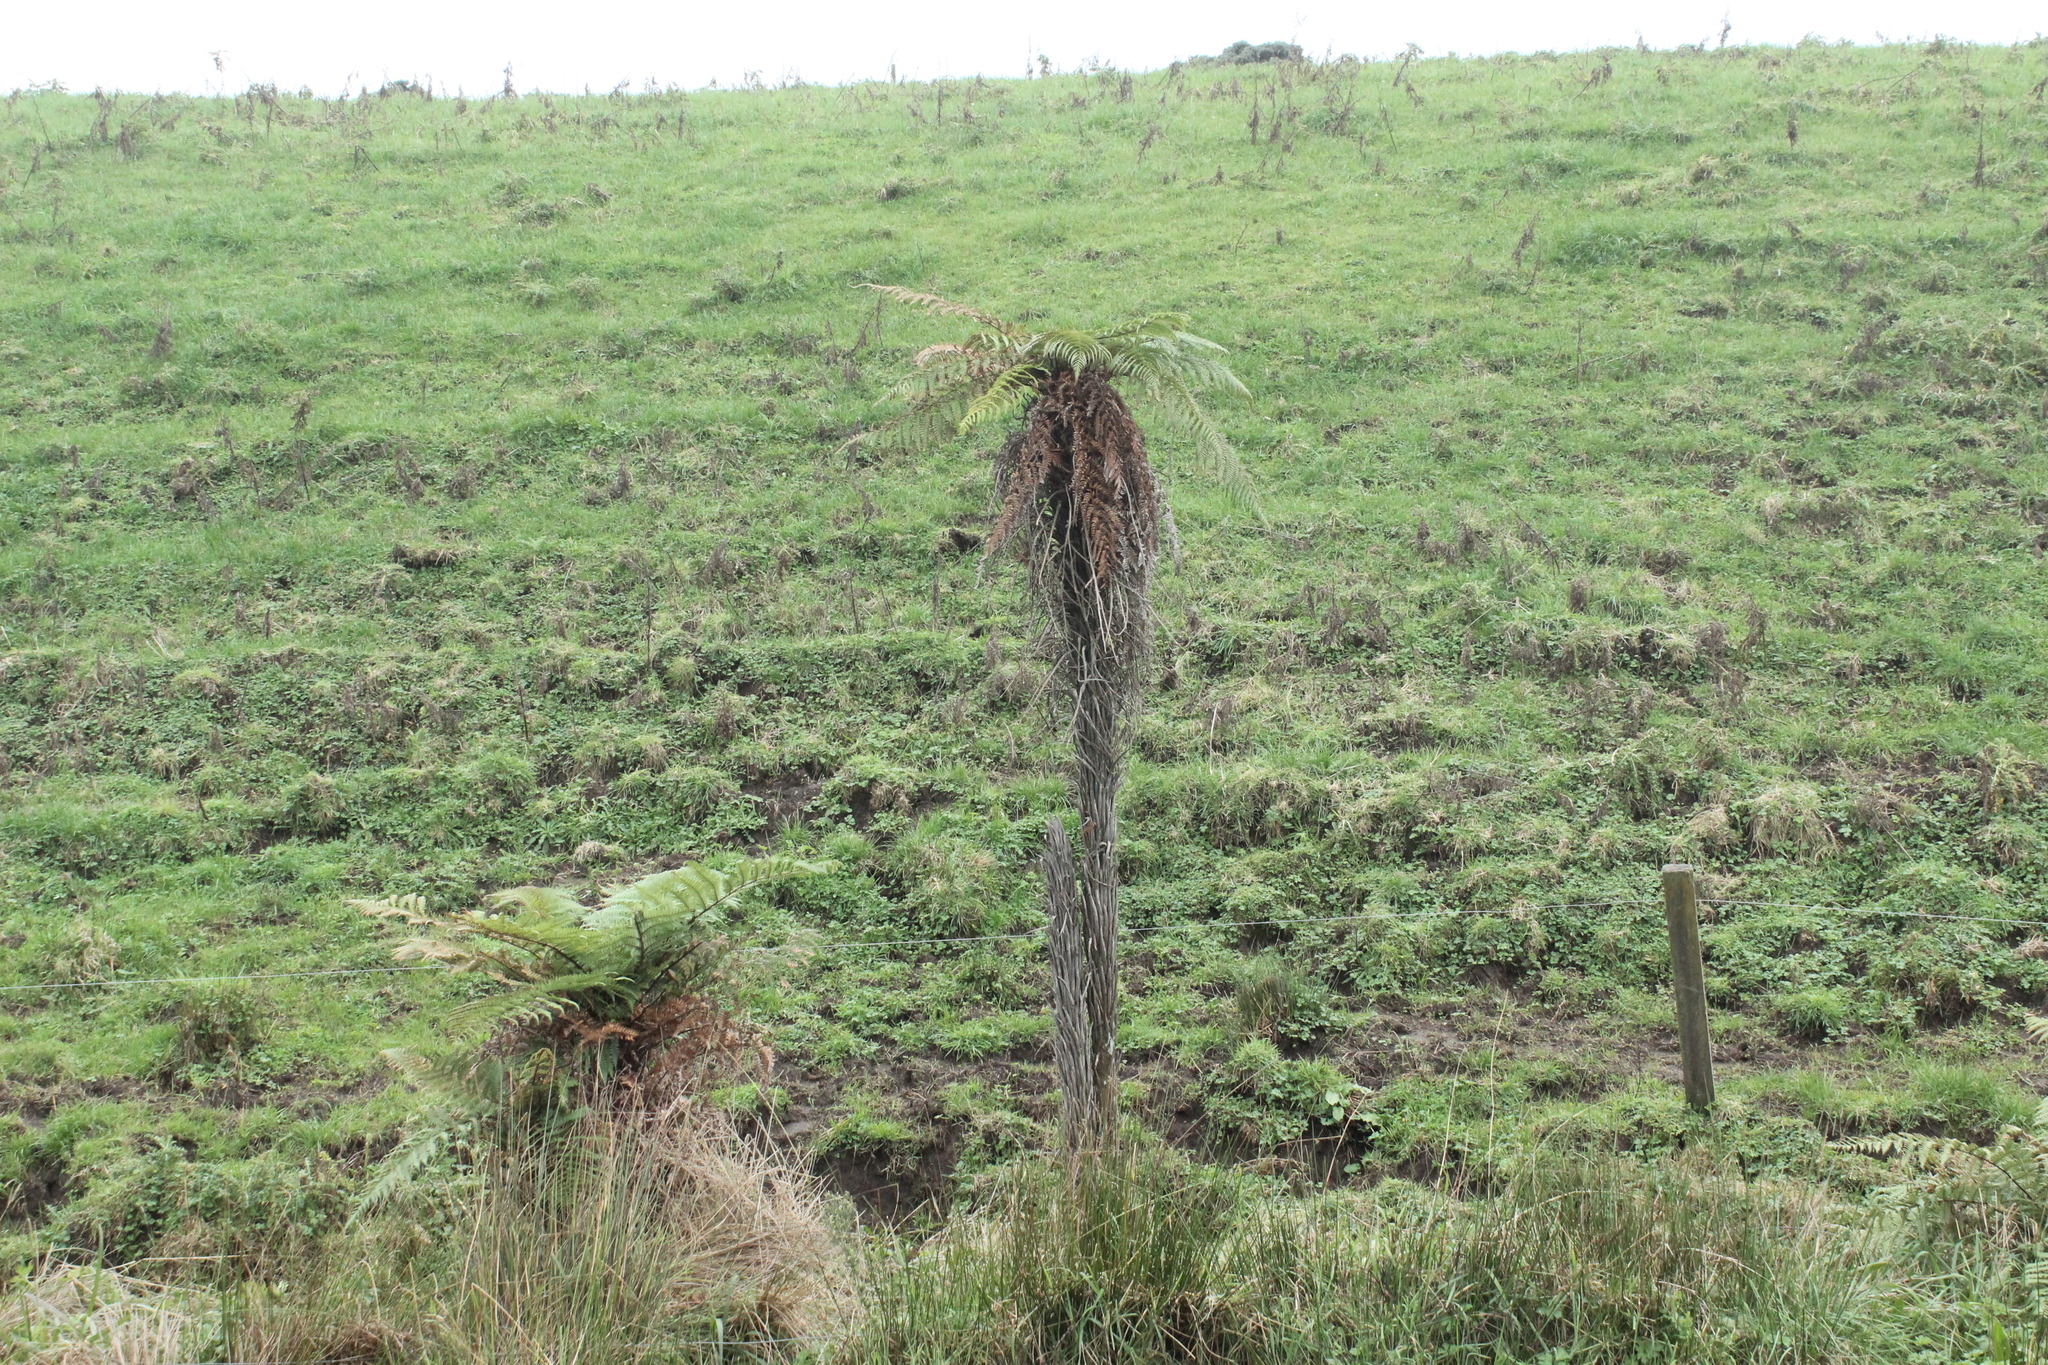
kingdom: Plantae
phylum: Tracheophyta
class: Polypodiopsida
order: Cyatheales
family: Dicksoniaceae
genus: Dicksonia
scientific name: Dicksonia squarrosa
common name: Hard treefern
